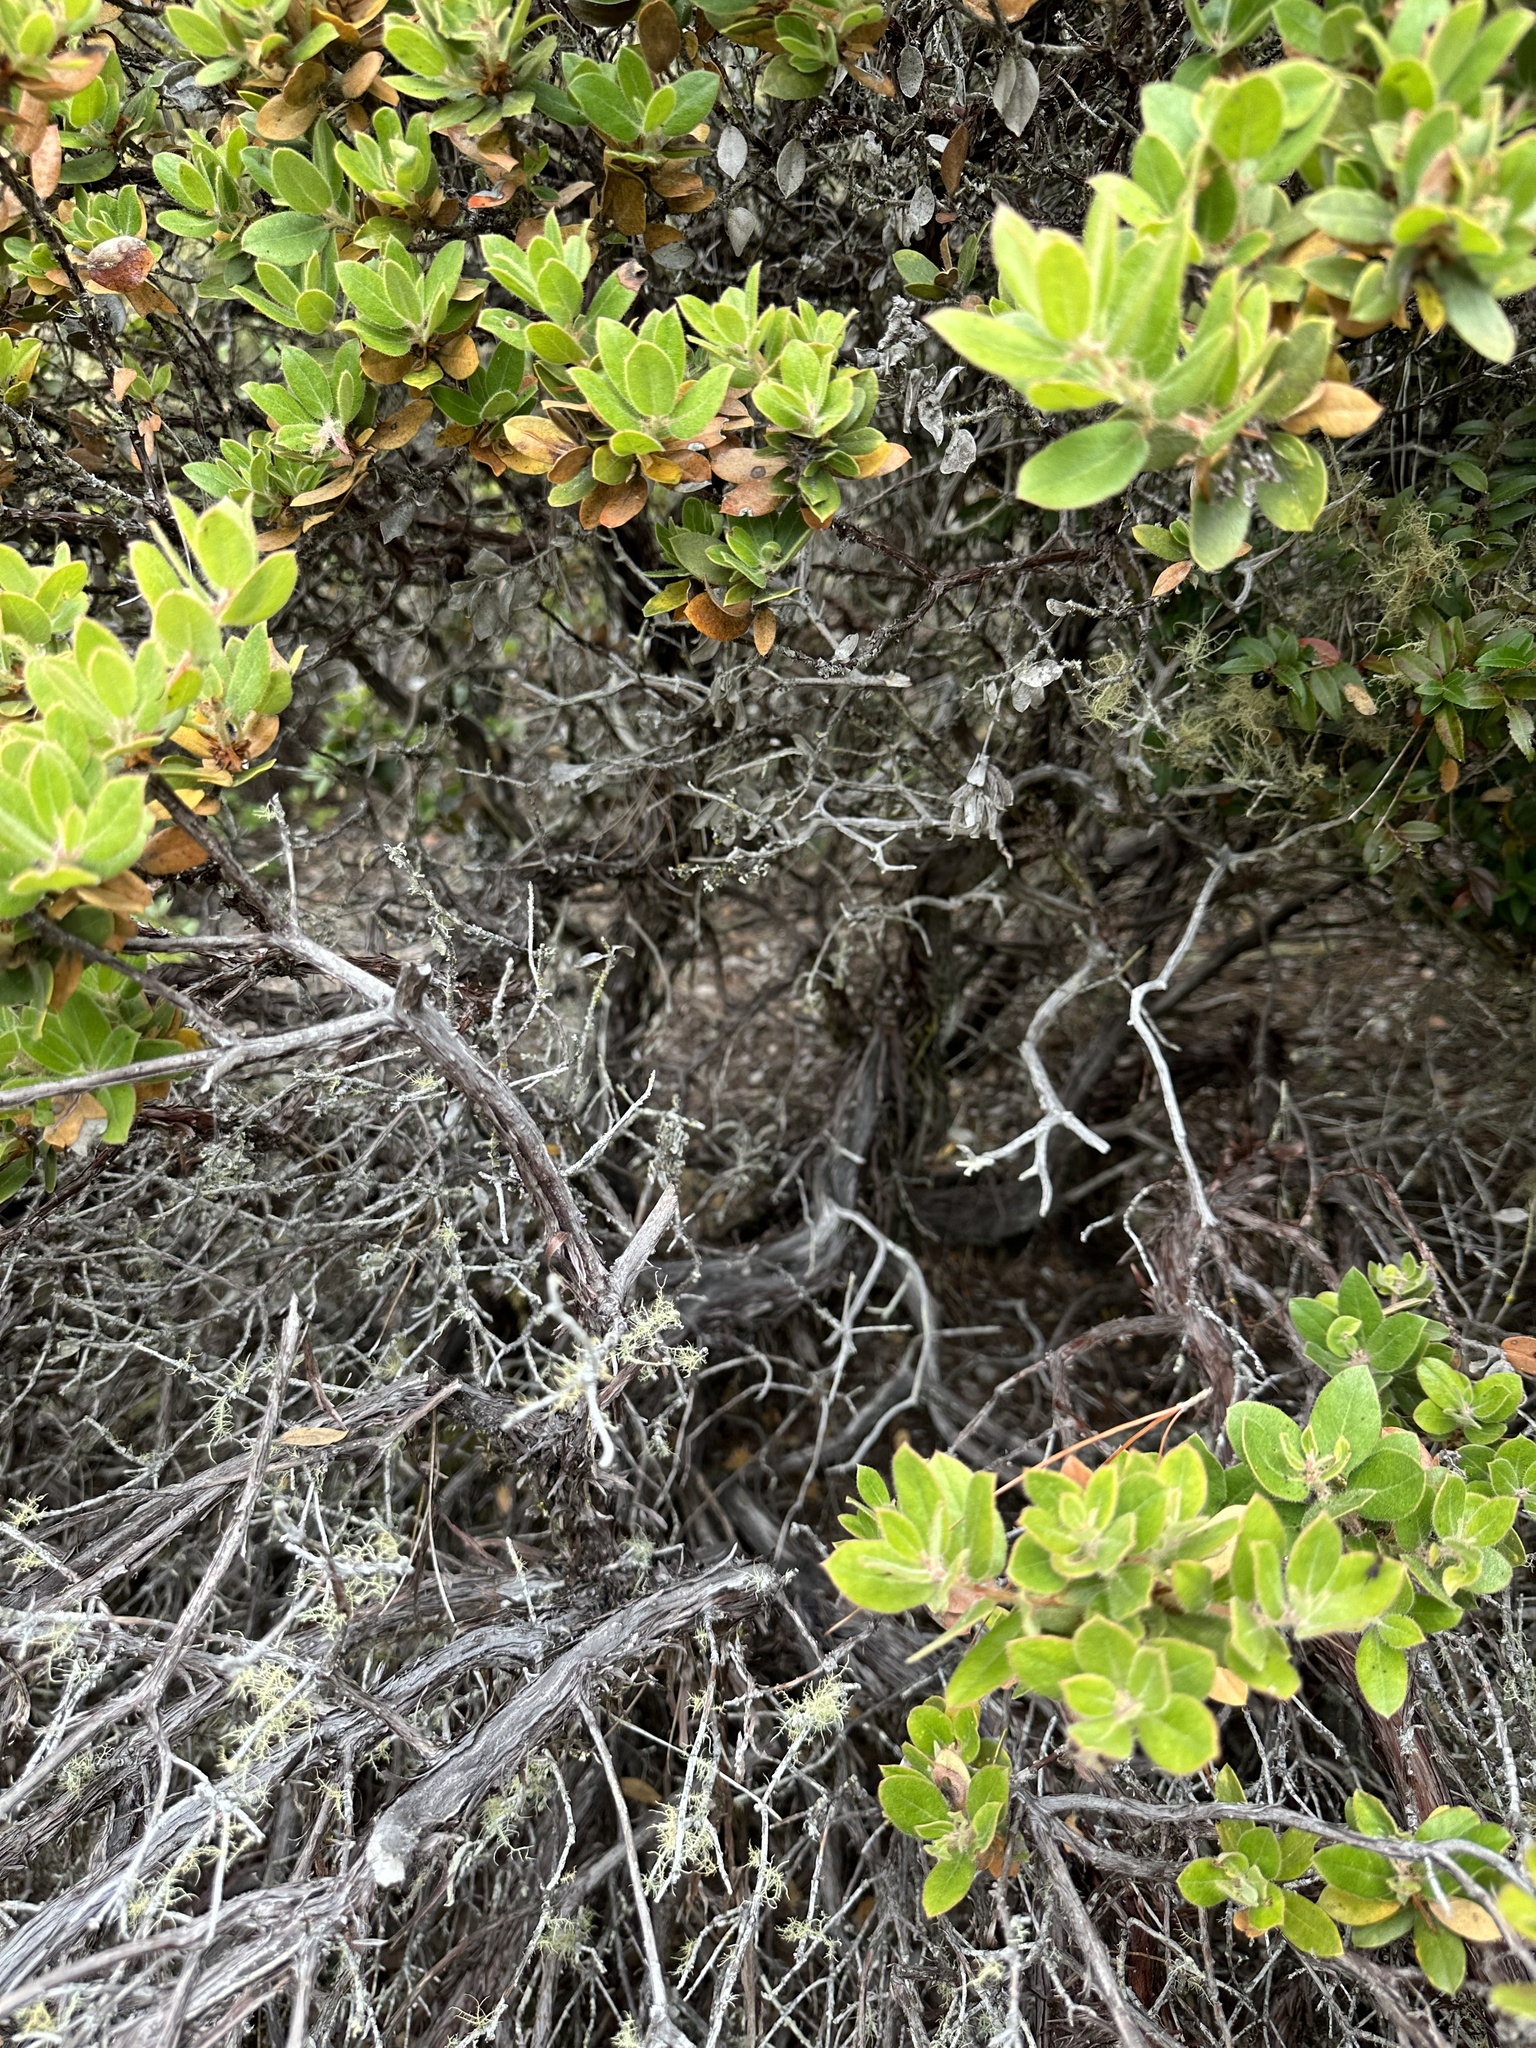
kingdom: Plantae
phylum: Tracheophyta
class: Magnoliopsida
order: Ericales
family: Ericaceae
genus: Arctostaphylos
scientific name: Arctostaphylos tomentosa
